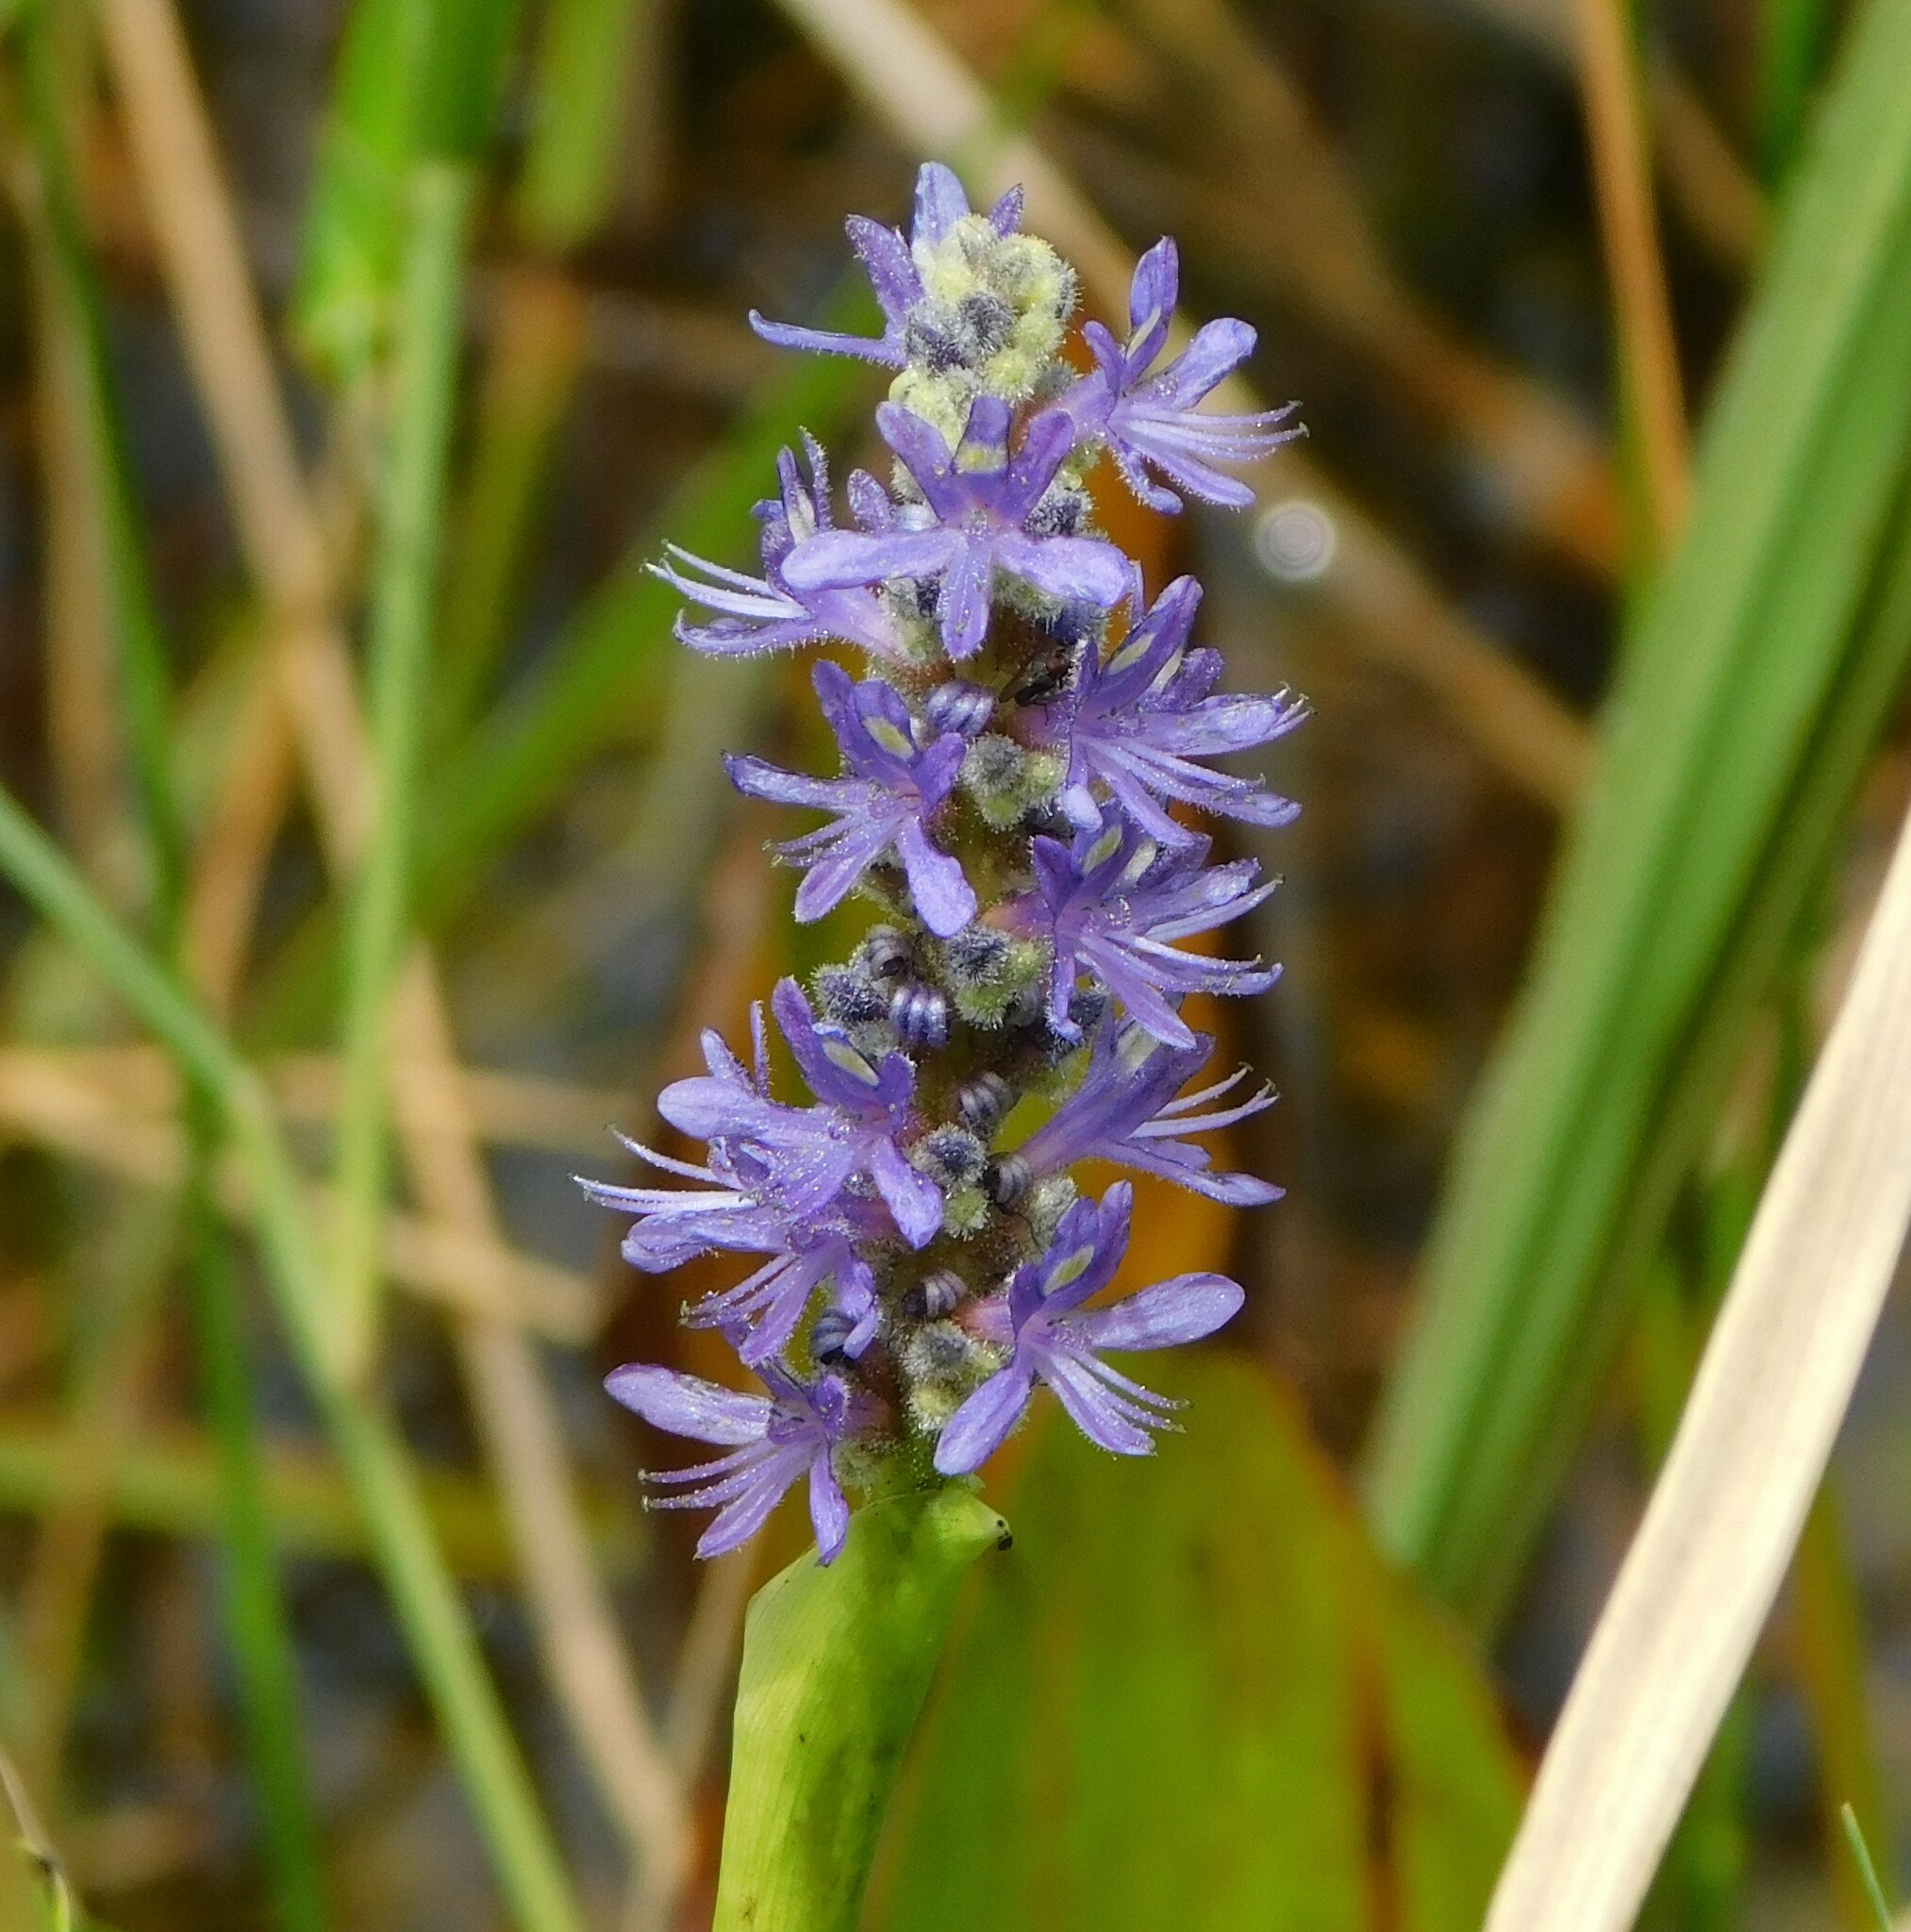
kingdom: Plantae
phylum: Tracheophyta
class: Liliopsida
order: Commelinales
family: Pontederiaceae
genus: Pontederia
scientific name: Pontederia cordata
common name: Pickerelweed
